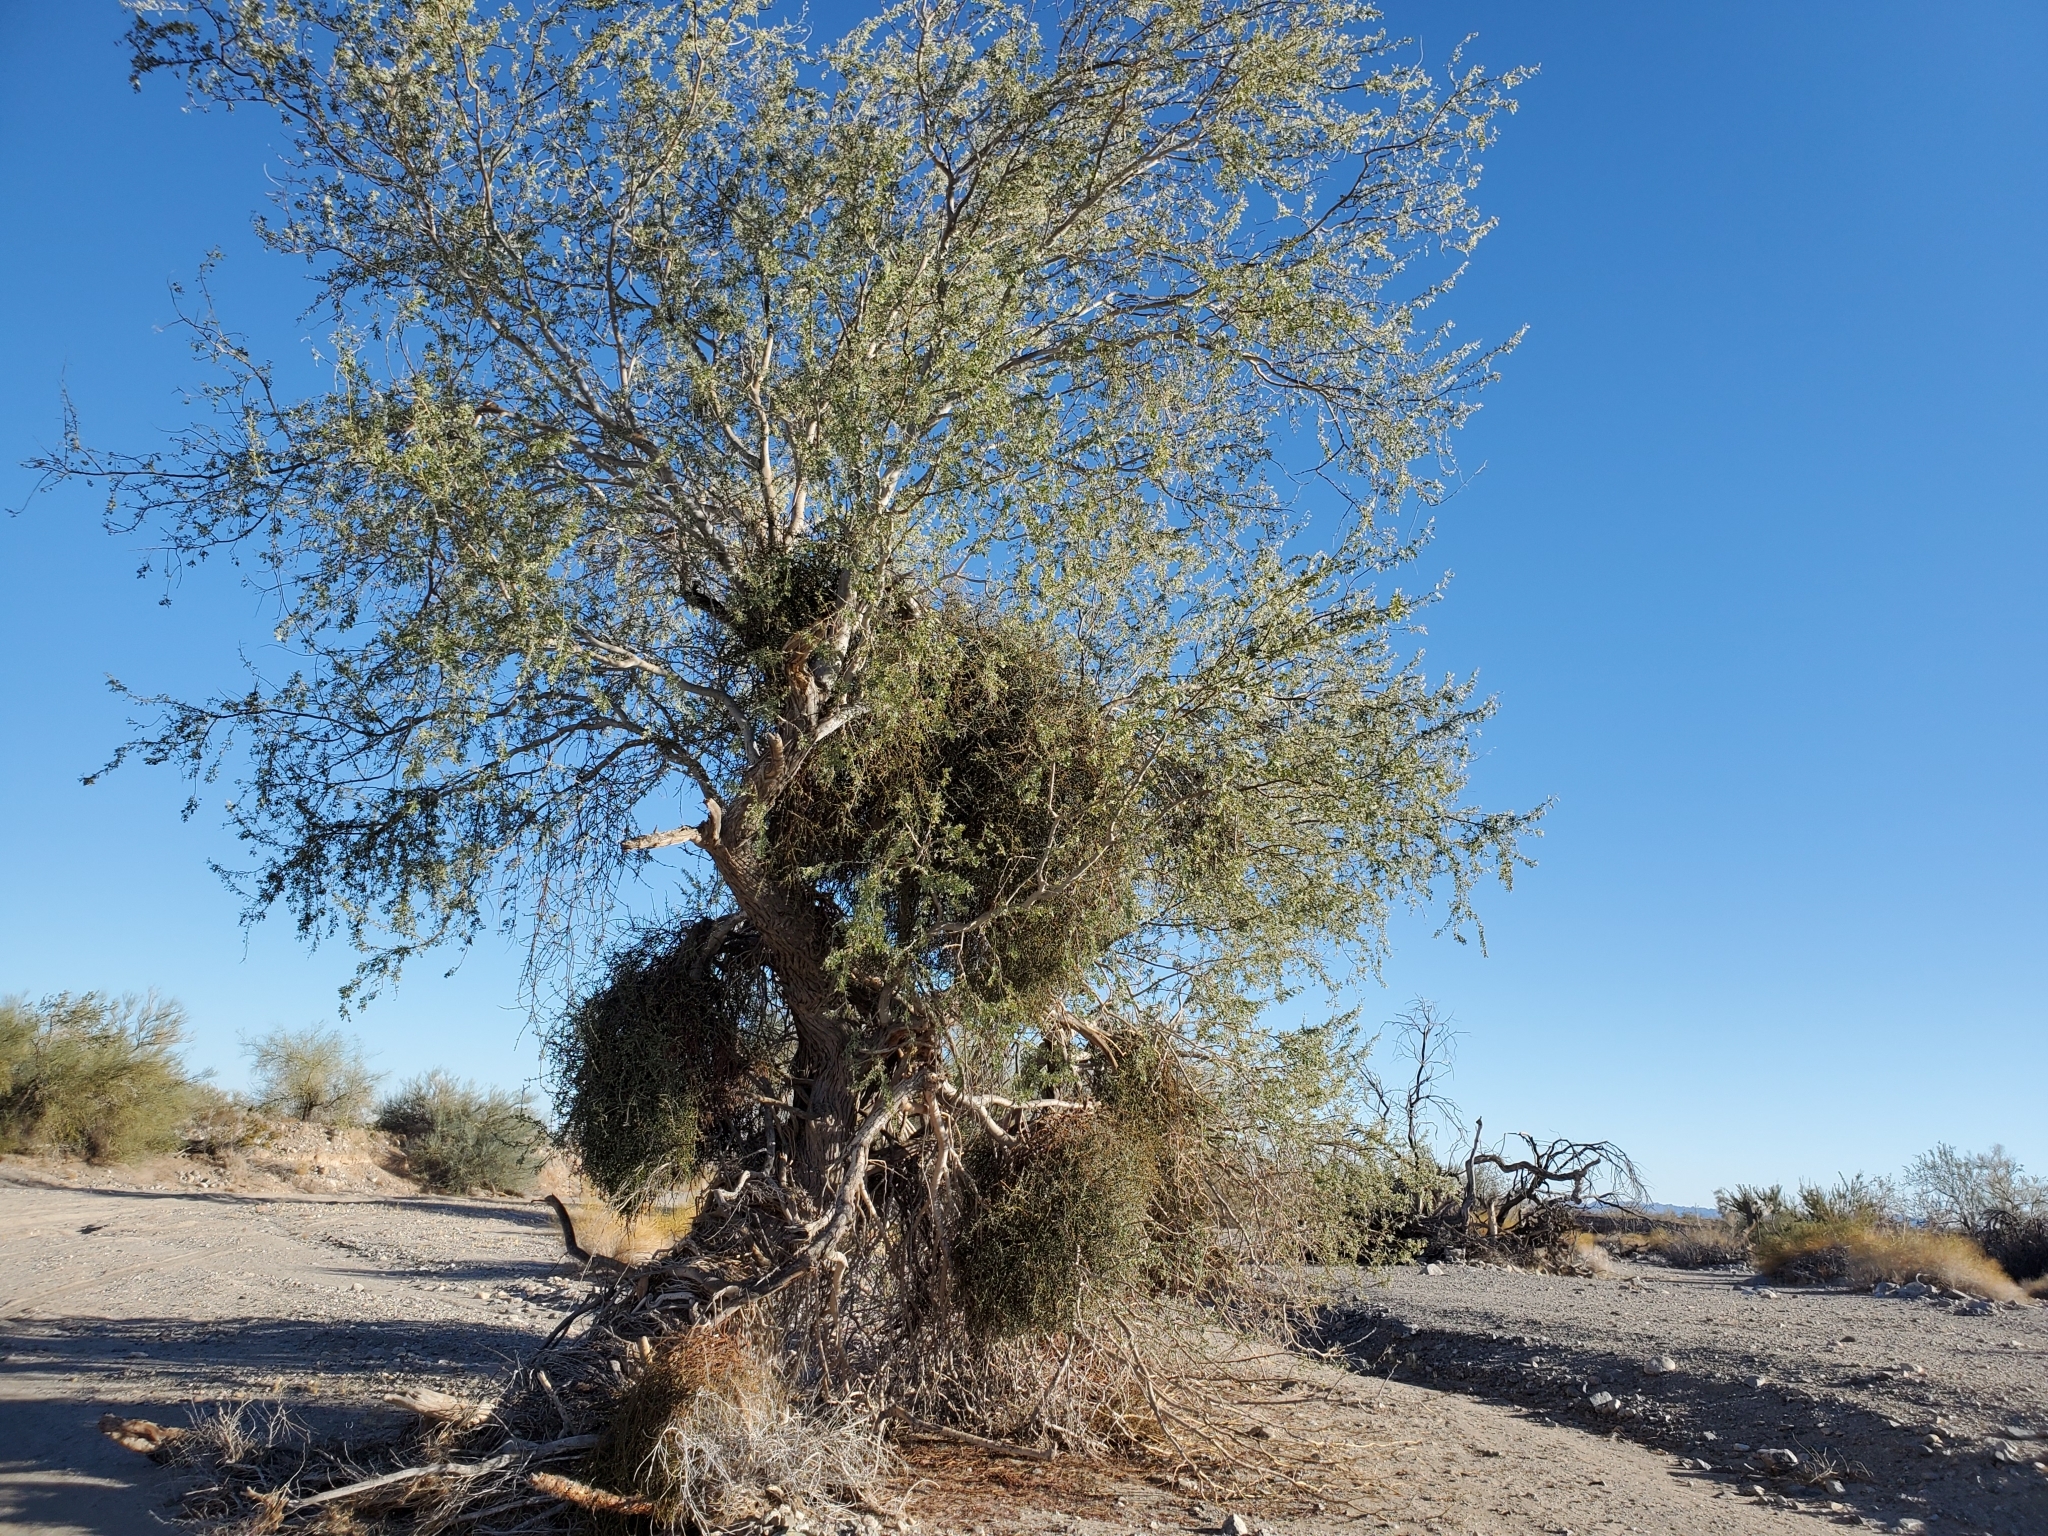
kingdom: Plantae
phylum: Tracheophyta
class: Magnoliopsida
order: Santalales
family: Viscaceae
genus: Phoradendron
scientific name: Phoradendron californicum
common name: Acacia mistletoe
